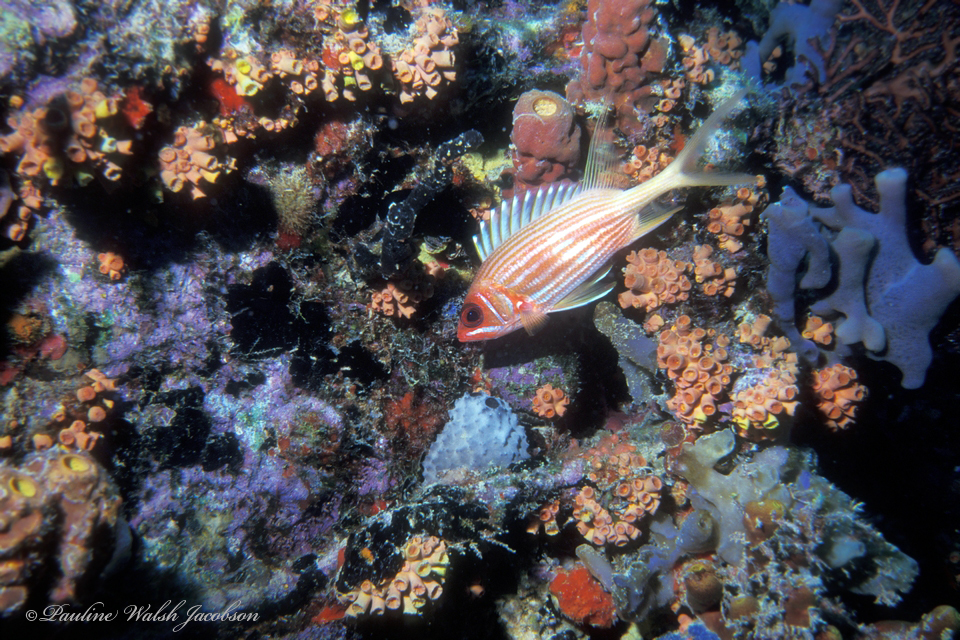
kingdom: Animalia
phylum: Chordata
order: Beryciformes
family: Holocentridae
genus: Holocentrus
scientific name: Holocentrus rufus
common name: Longspine squirrelfish
